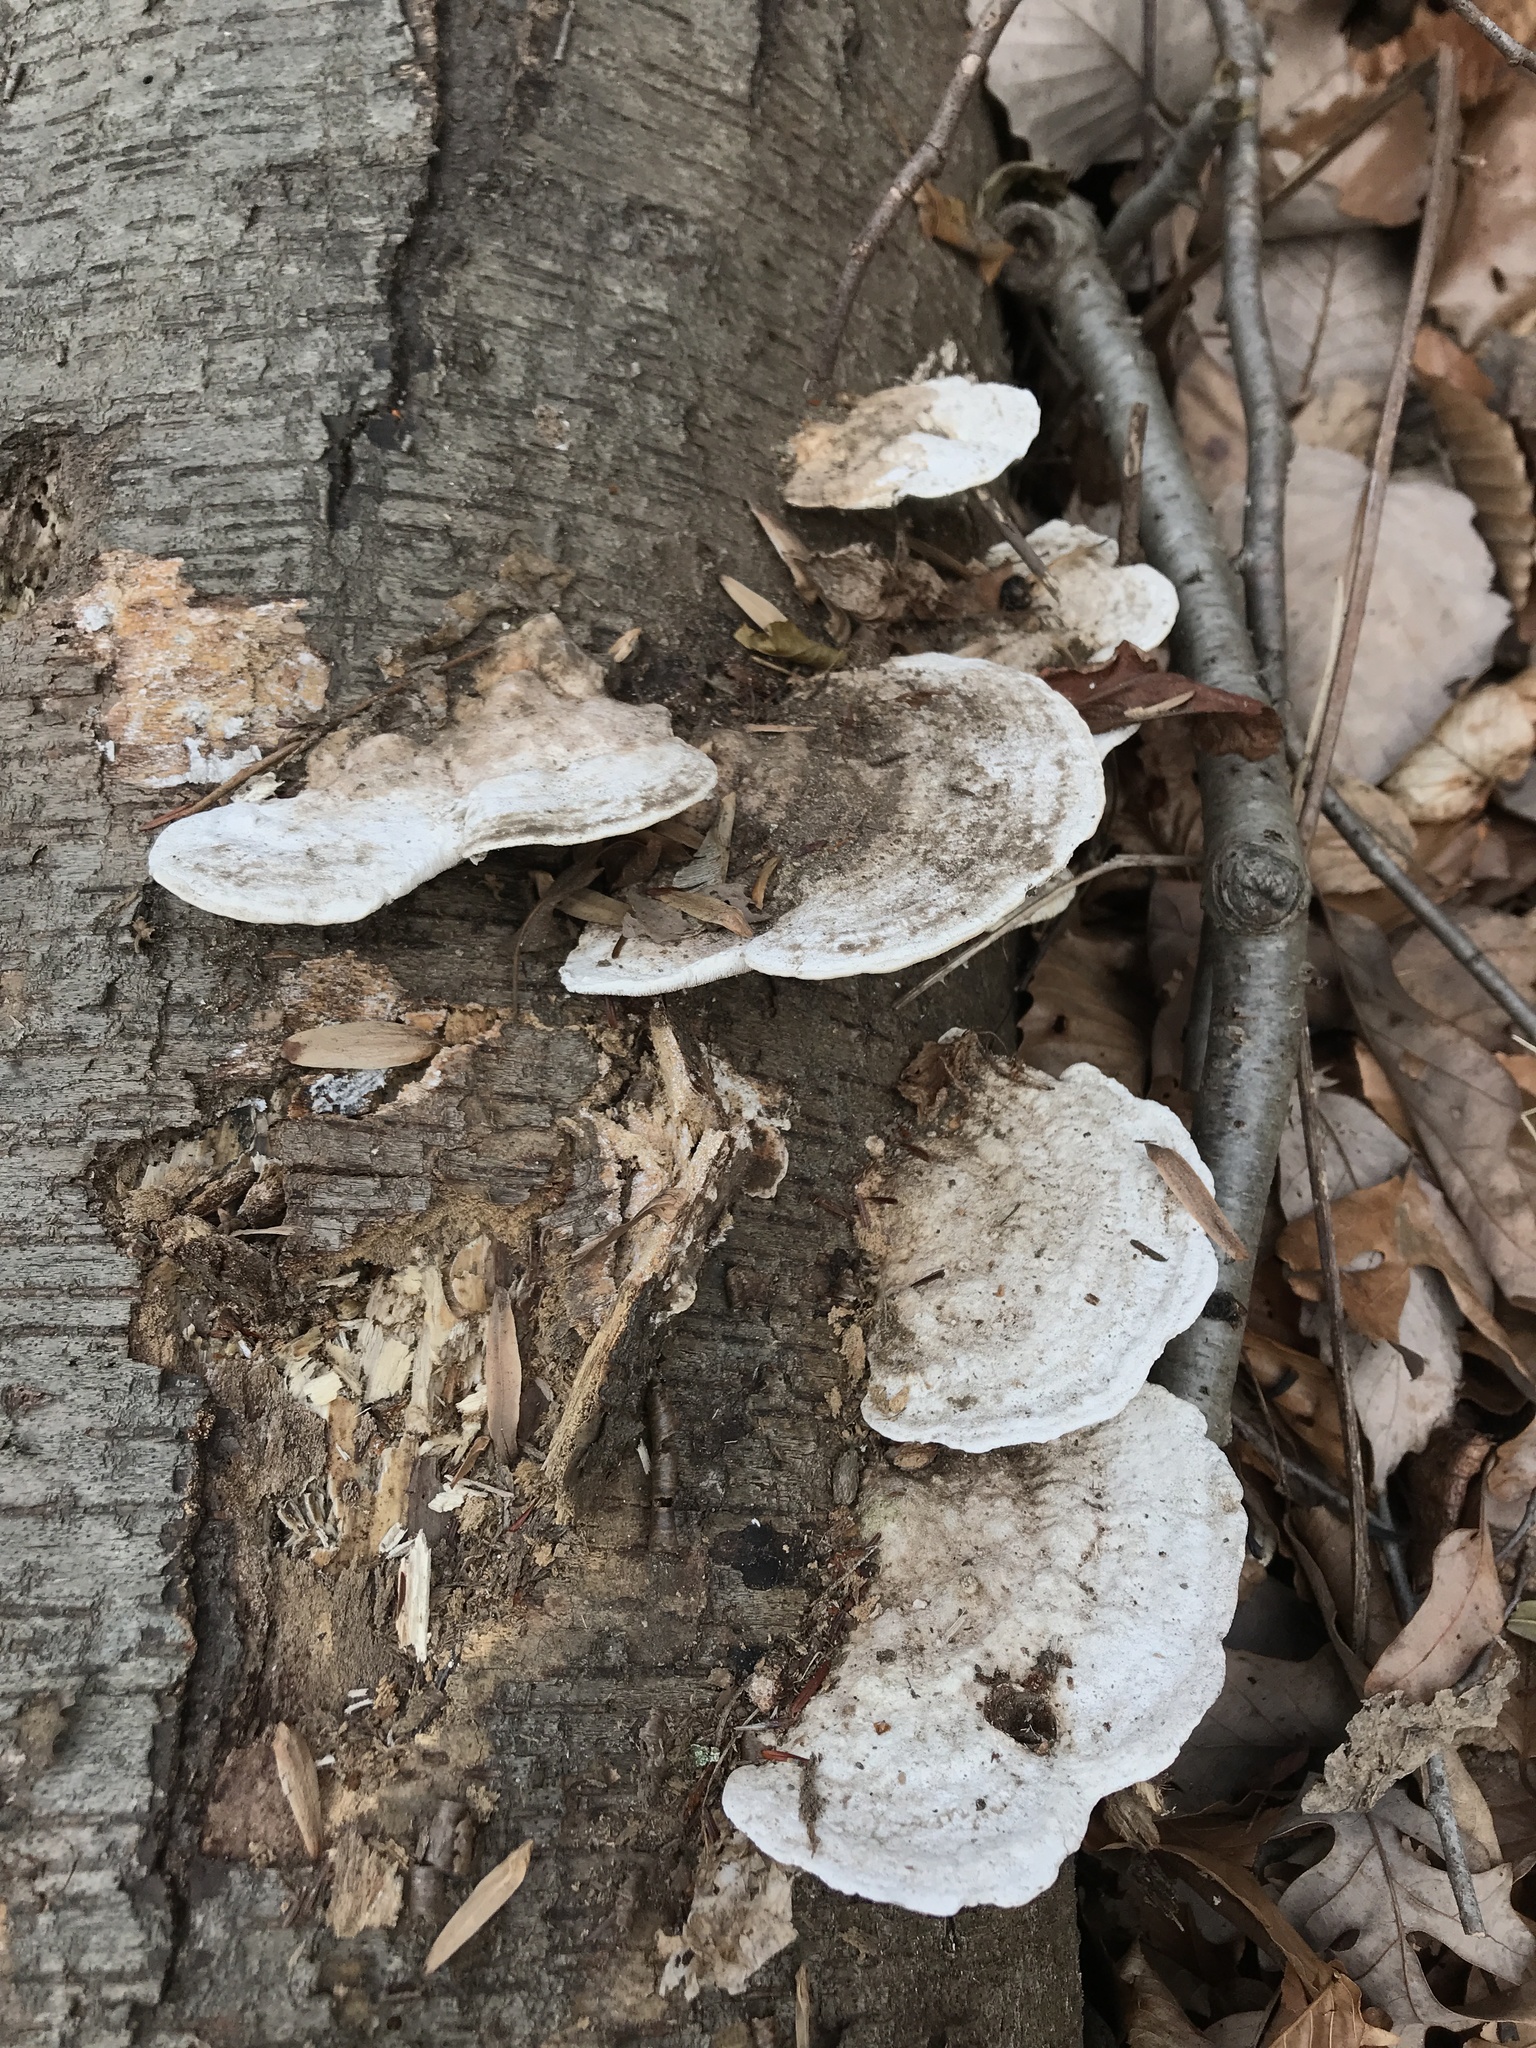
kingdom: Fungi
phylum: Basidiomycota
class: Agaricomycetes
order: Polyporales
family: Polyporaceae
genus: Trametes
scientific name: Trametes gibbosa
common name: Lumpy bracket
